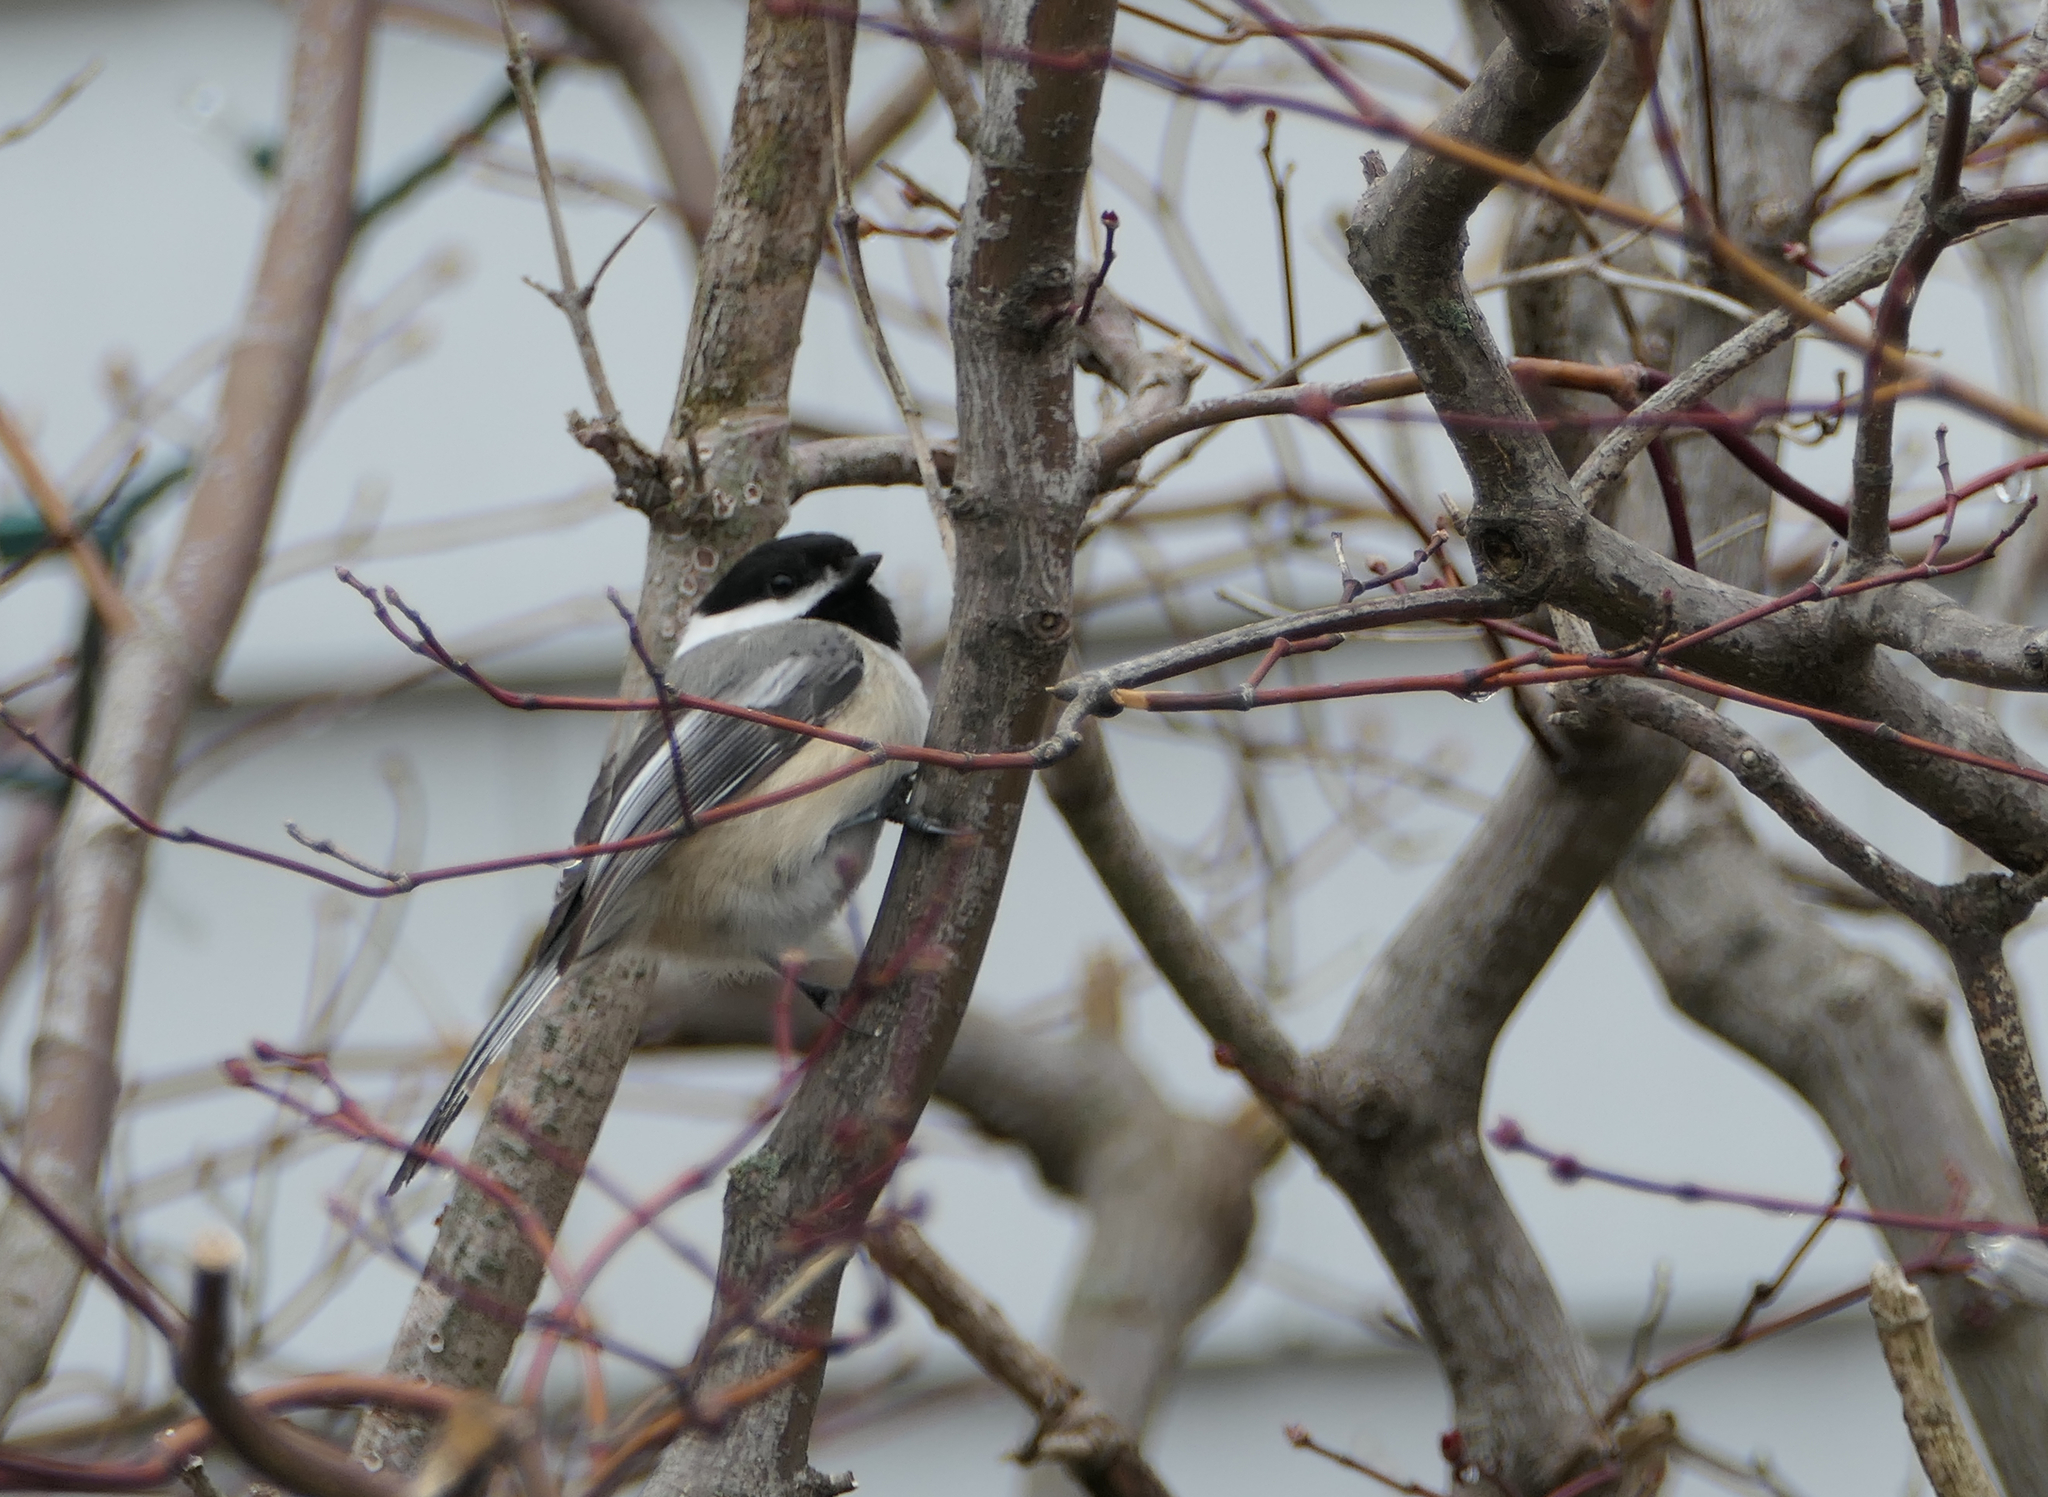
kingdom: Animalia
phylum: Chordata
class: Aves
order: Passeriformes
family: Paridae
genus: Poecile
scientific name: Poecile atricapillus
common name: Black-capped chickadee
